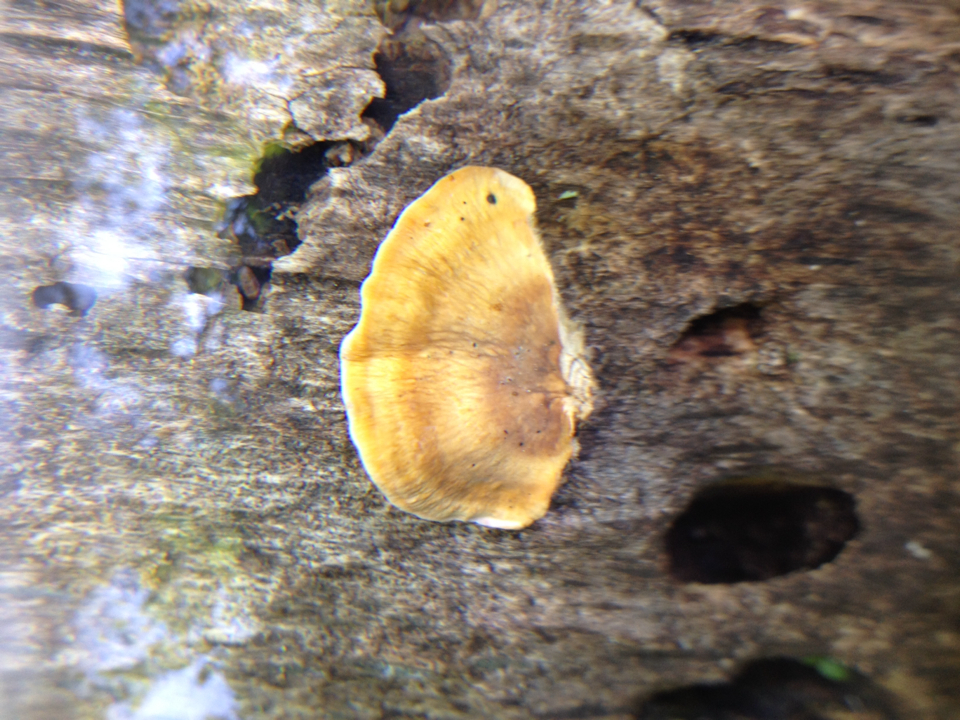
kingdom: Fungi
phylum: Basidiomycota
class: Agaricomycetes
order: Russulales
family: Stereaceae
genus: Stereum
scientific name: Stereum hirsutum
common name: Hairy curtain crust
